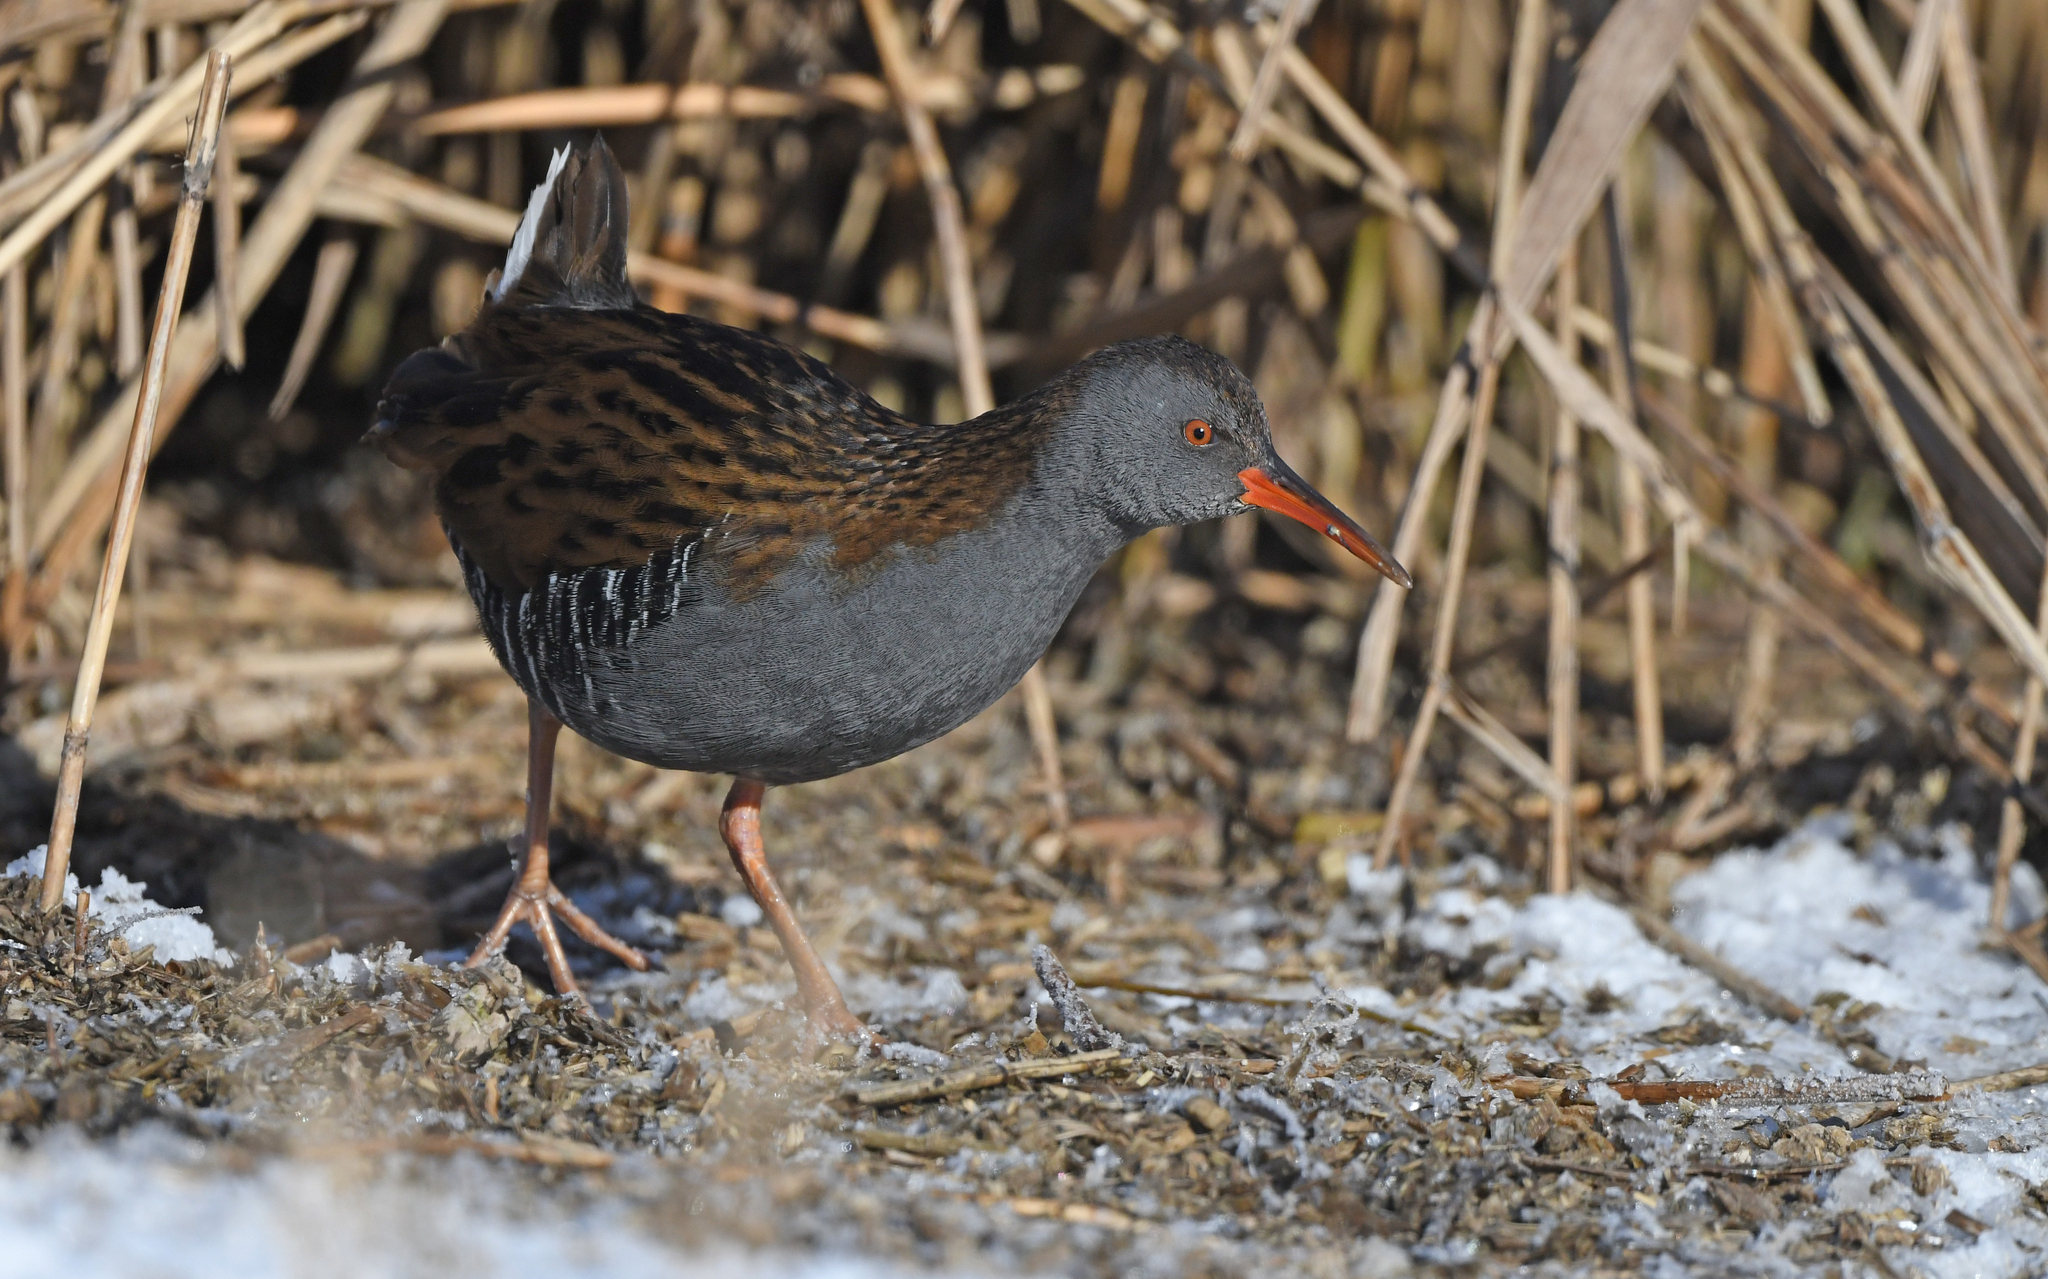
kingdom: Animalia
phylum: Chordata
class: Aves
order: Gruiformes
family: Rallidae
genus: Rallus
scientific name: Rallus aquaticus
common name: Water rail
